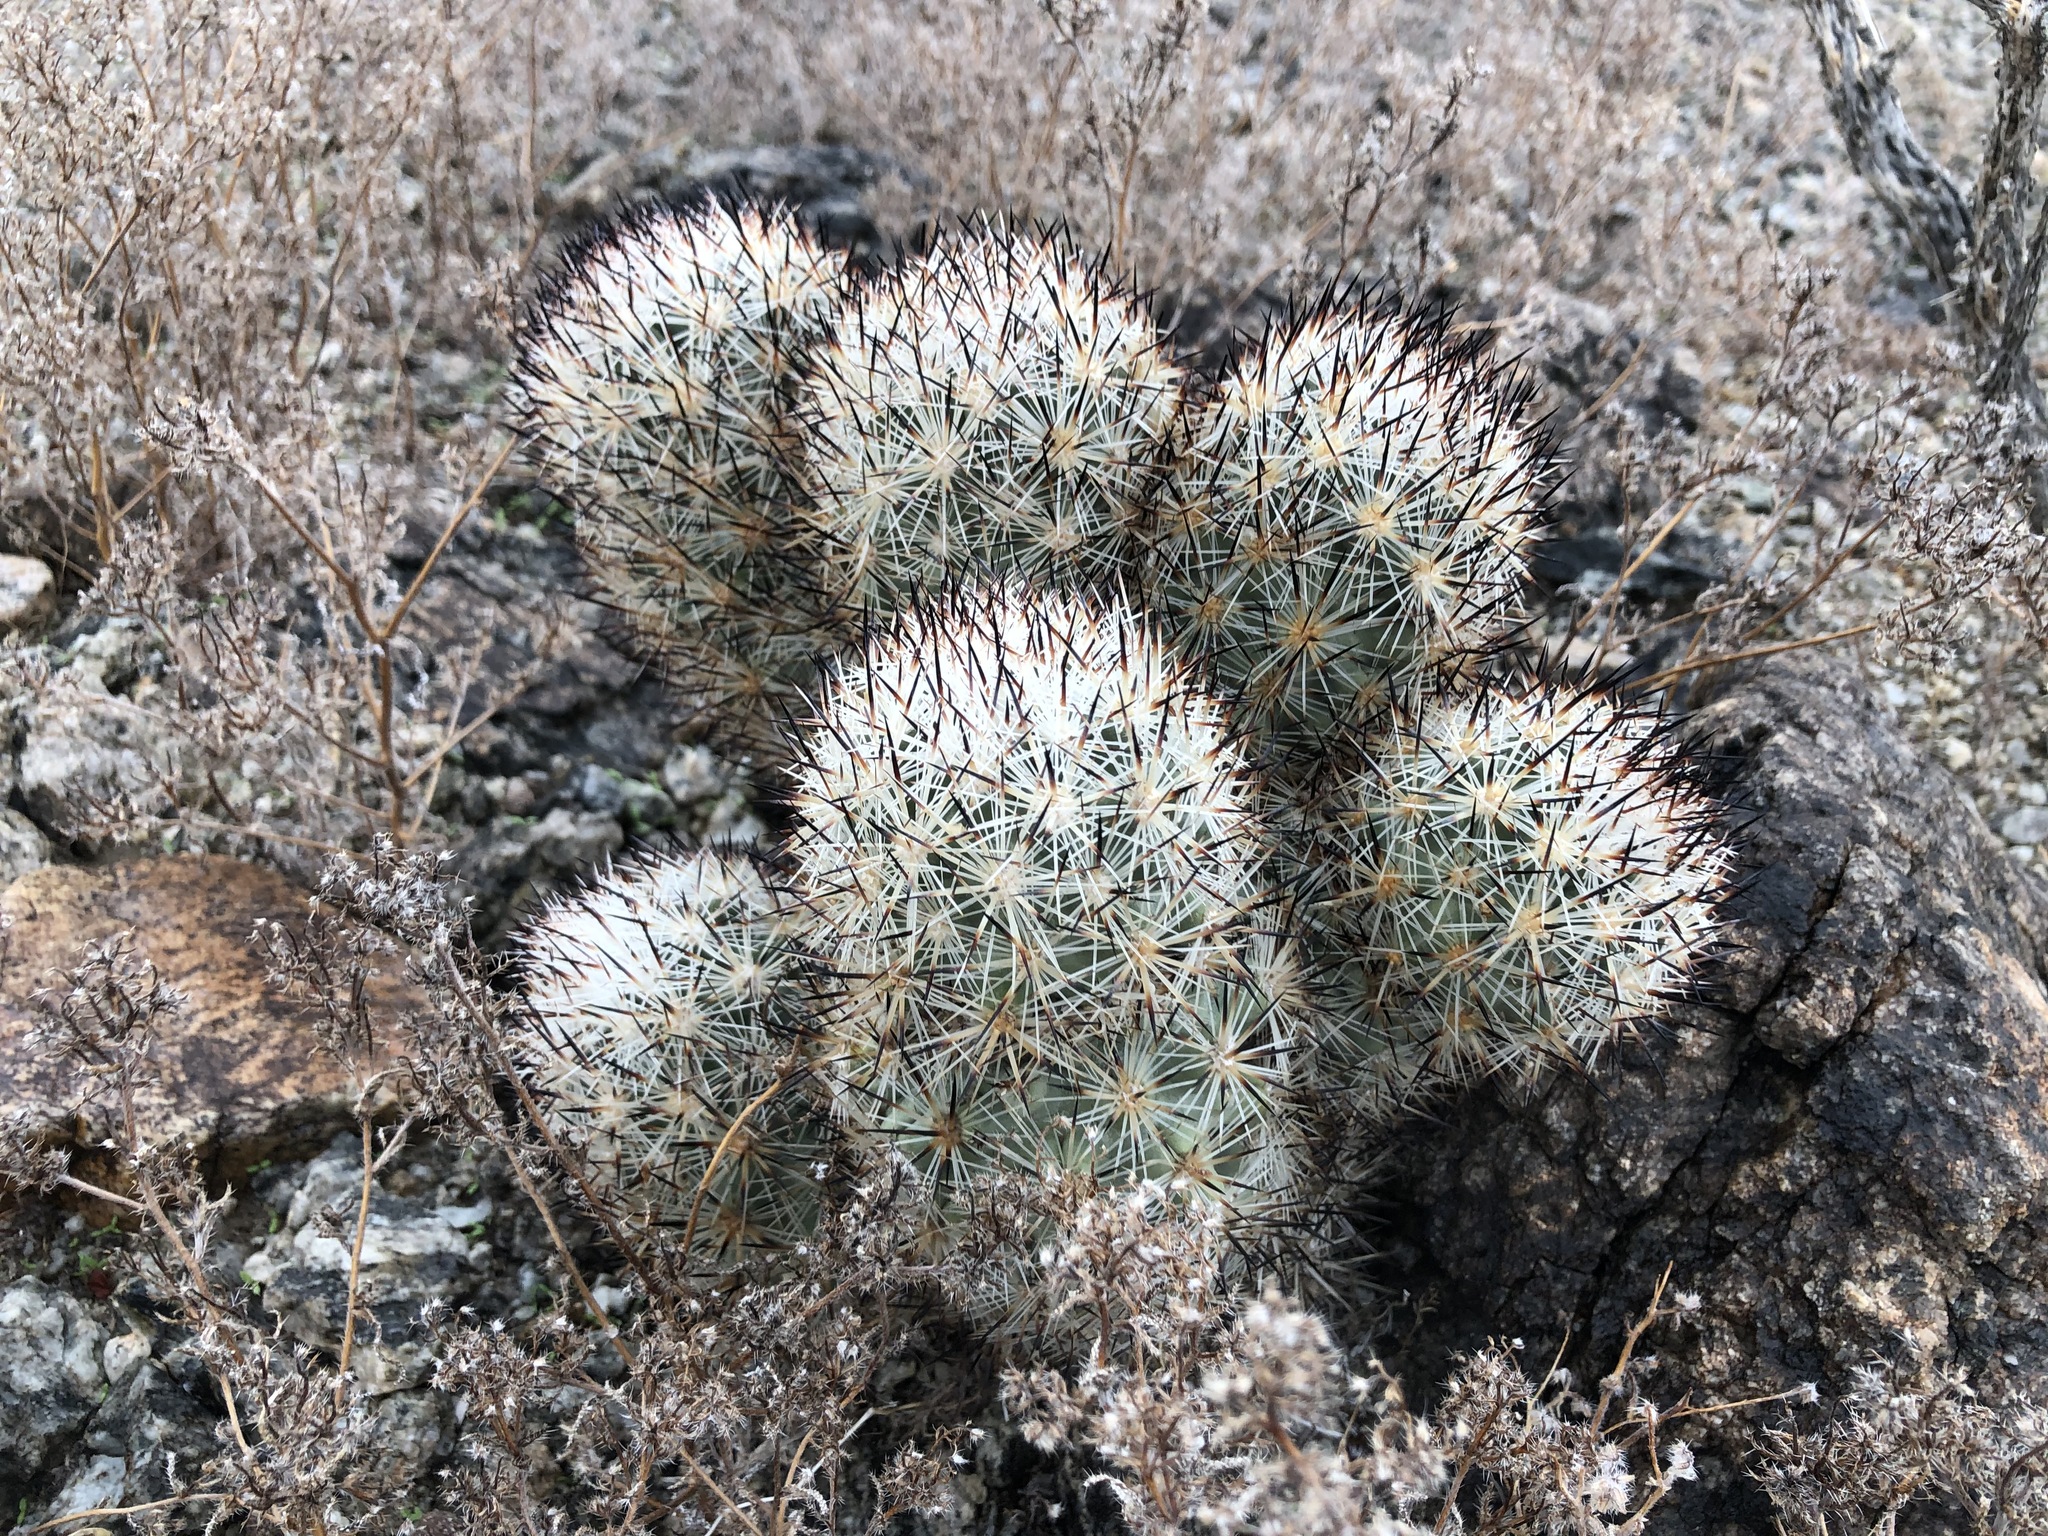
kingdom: Plantae
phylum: Tracheophyta
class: Magnoliopsida
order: Caryophyllales
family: Cactaceae
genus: Pelecyphora
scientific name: Pelecyphora alversonii
